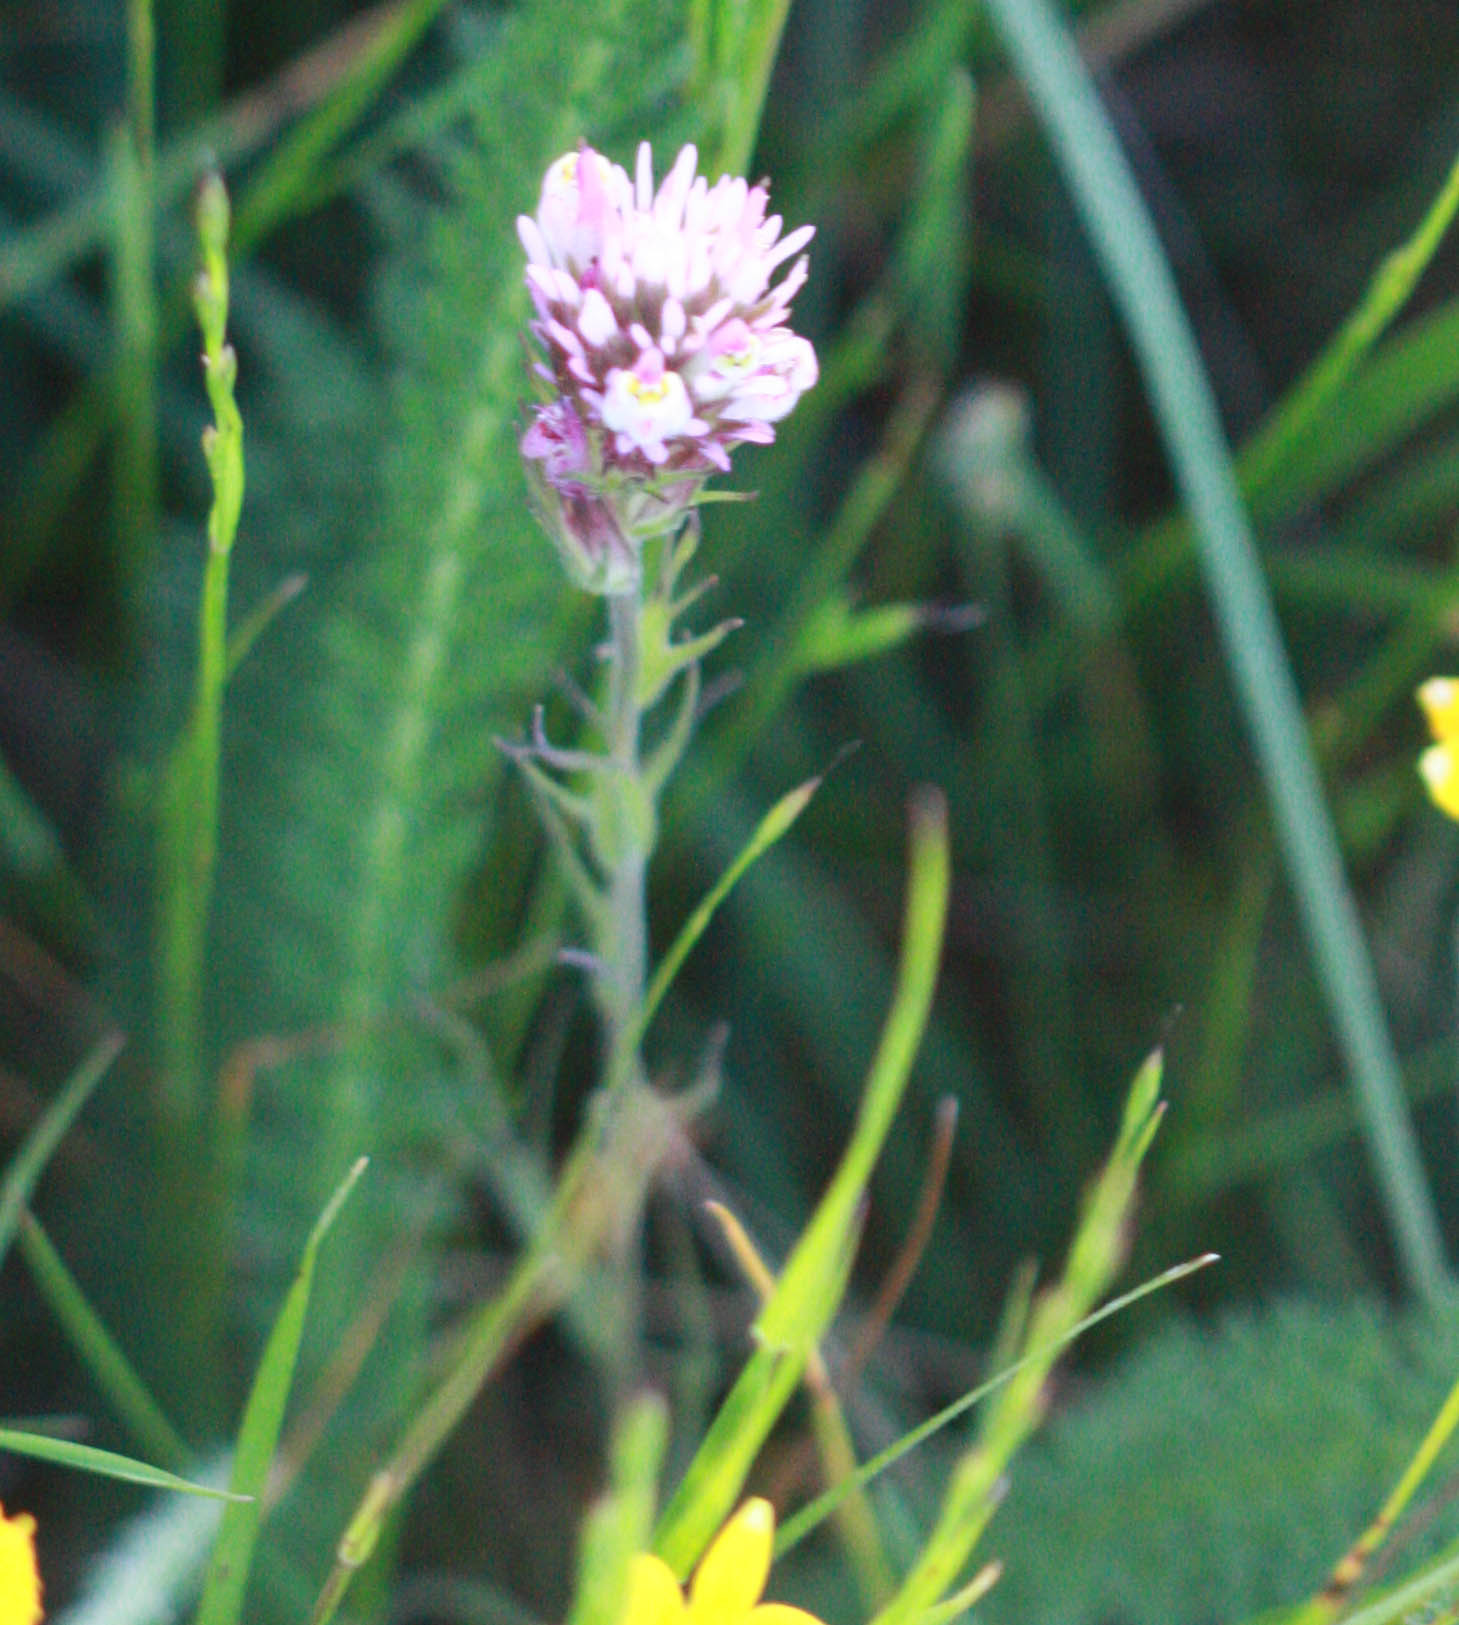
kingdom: Plantae
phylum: Tracheophyta
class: Magnoliopsida
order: Lamiales
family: Orobanchaceae
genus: Castilleja
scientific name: Castilleja densiflora
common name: Dense-flower indian paintbrush
